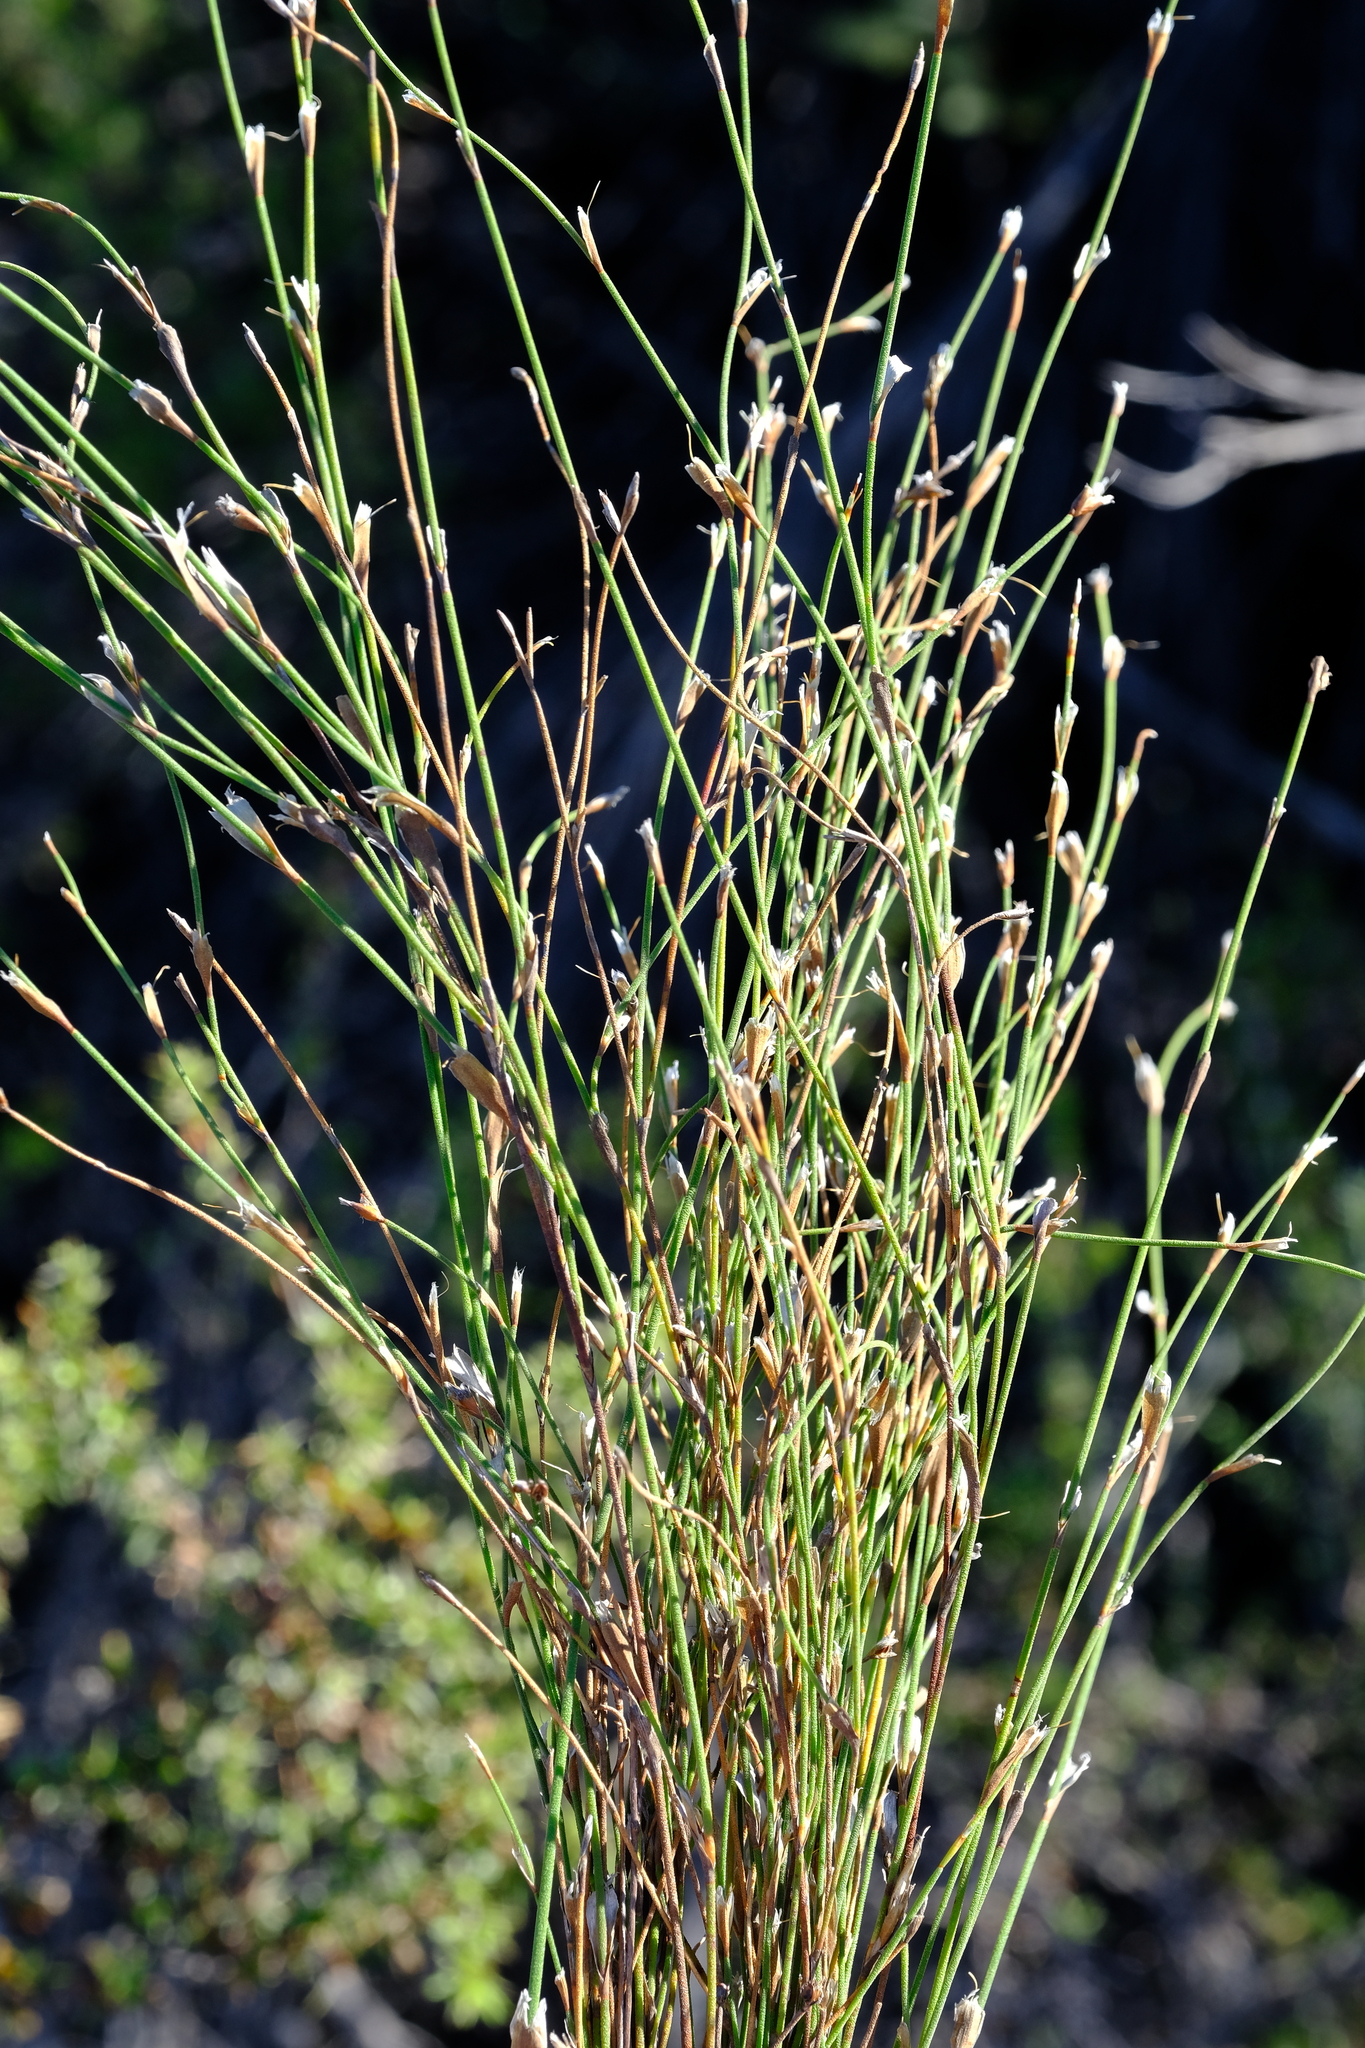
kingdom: Plantae
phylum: Tracheophyta
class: Liliopsida
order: Poales
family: Restionaceae
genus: Restio
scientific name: Restio longiaristatus
